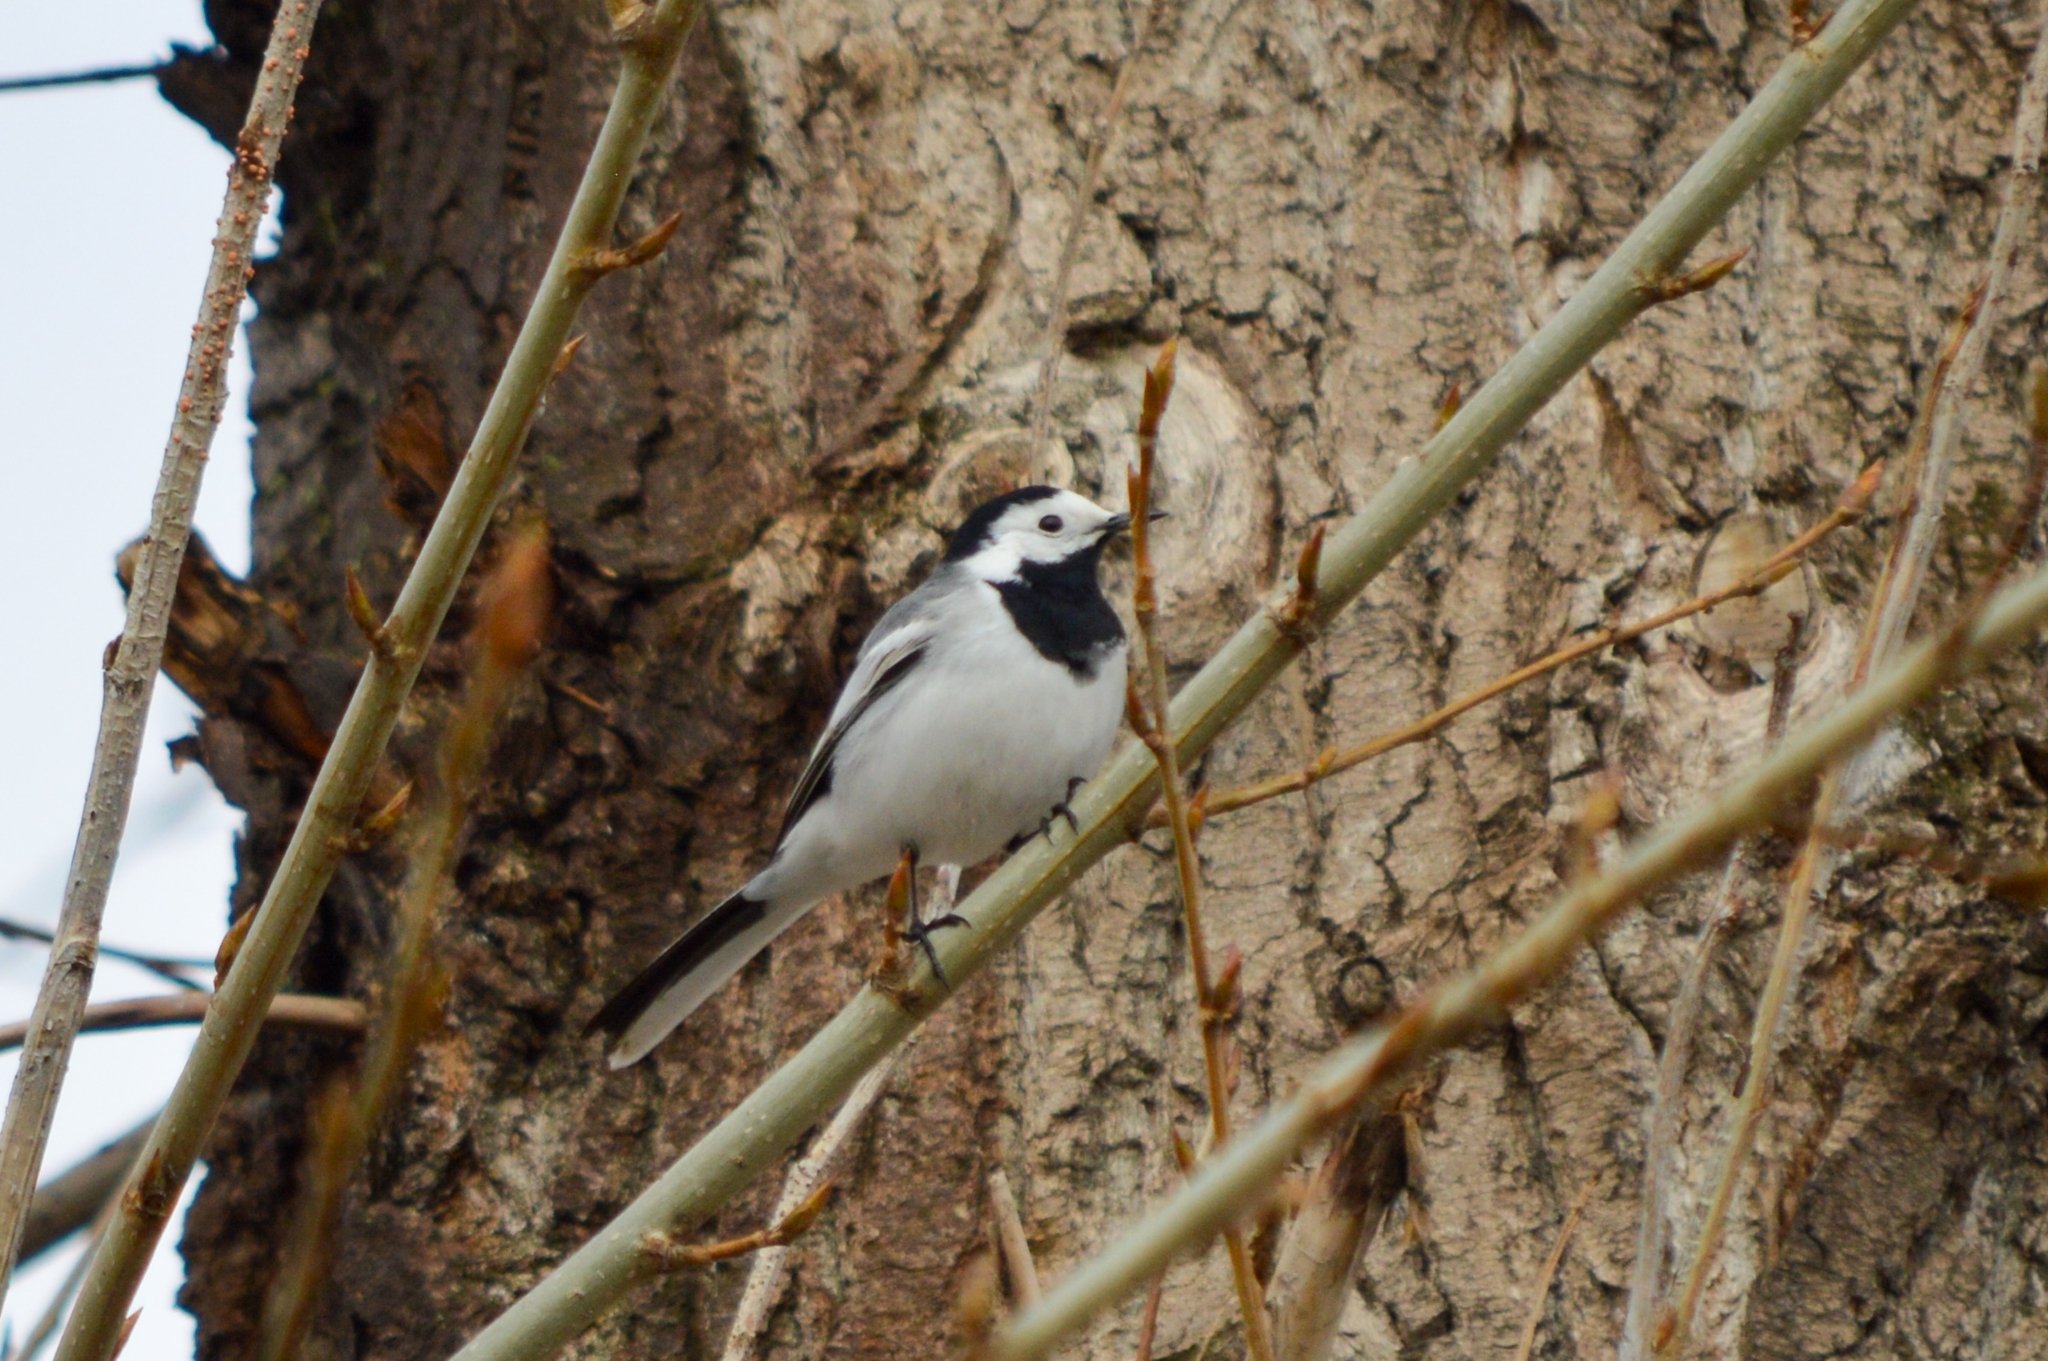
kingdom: Animalia
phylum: Chordata
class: Aves
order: Passeriformes
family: Motacillidae
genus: Motacilla
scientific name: Motacilla alba
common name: White wagtail
